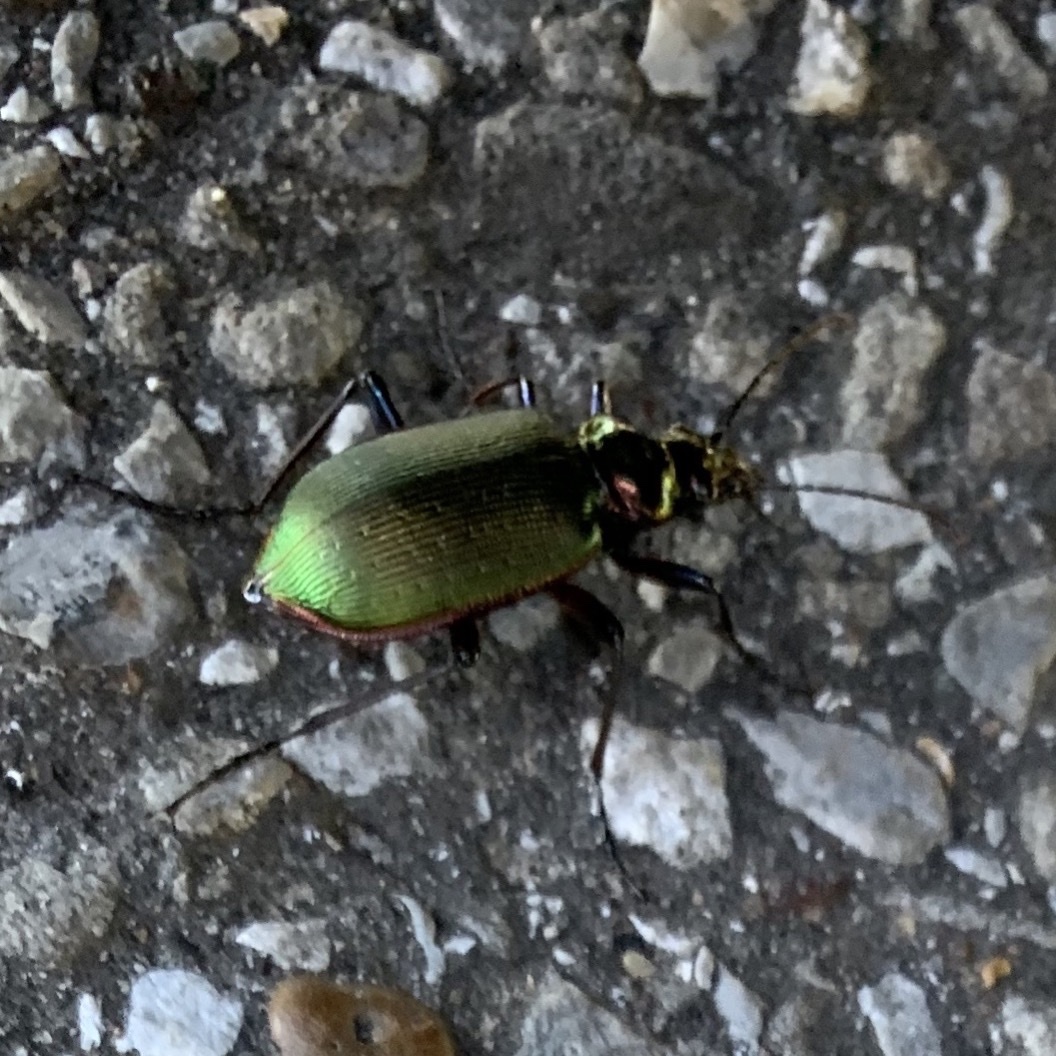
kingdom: Animalia
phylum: Arthropoda
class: Insecta
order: Coleoptera
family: Carabidae
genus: Calosoma
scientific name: Calosoma scrutator
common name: Fiery searcher beetle
